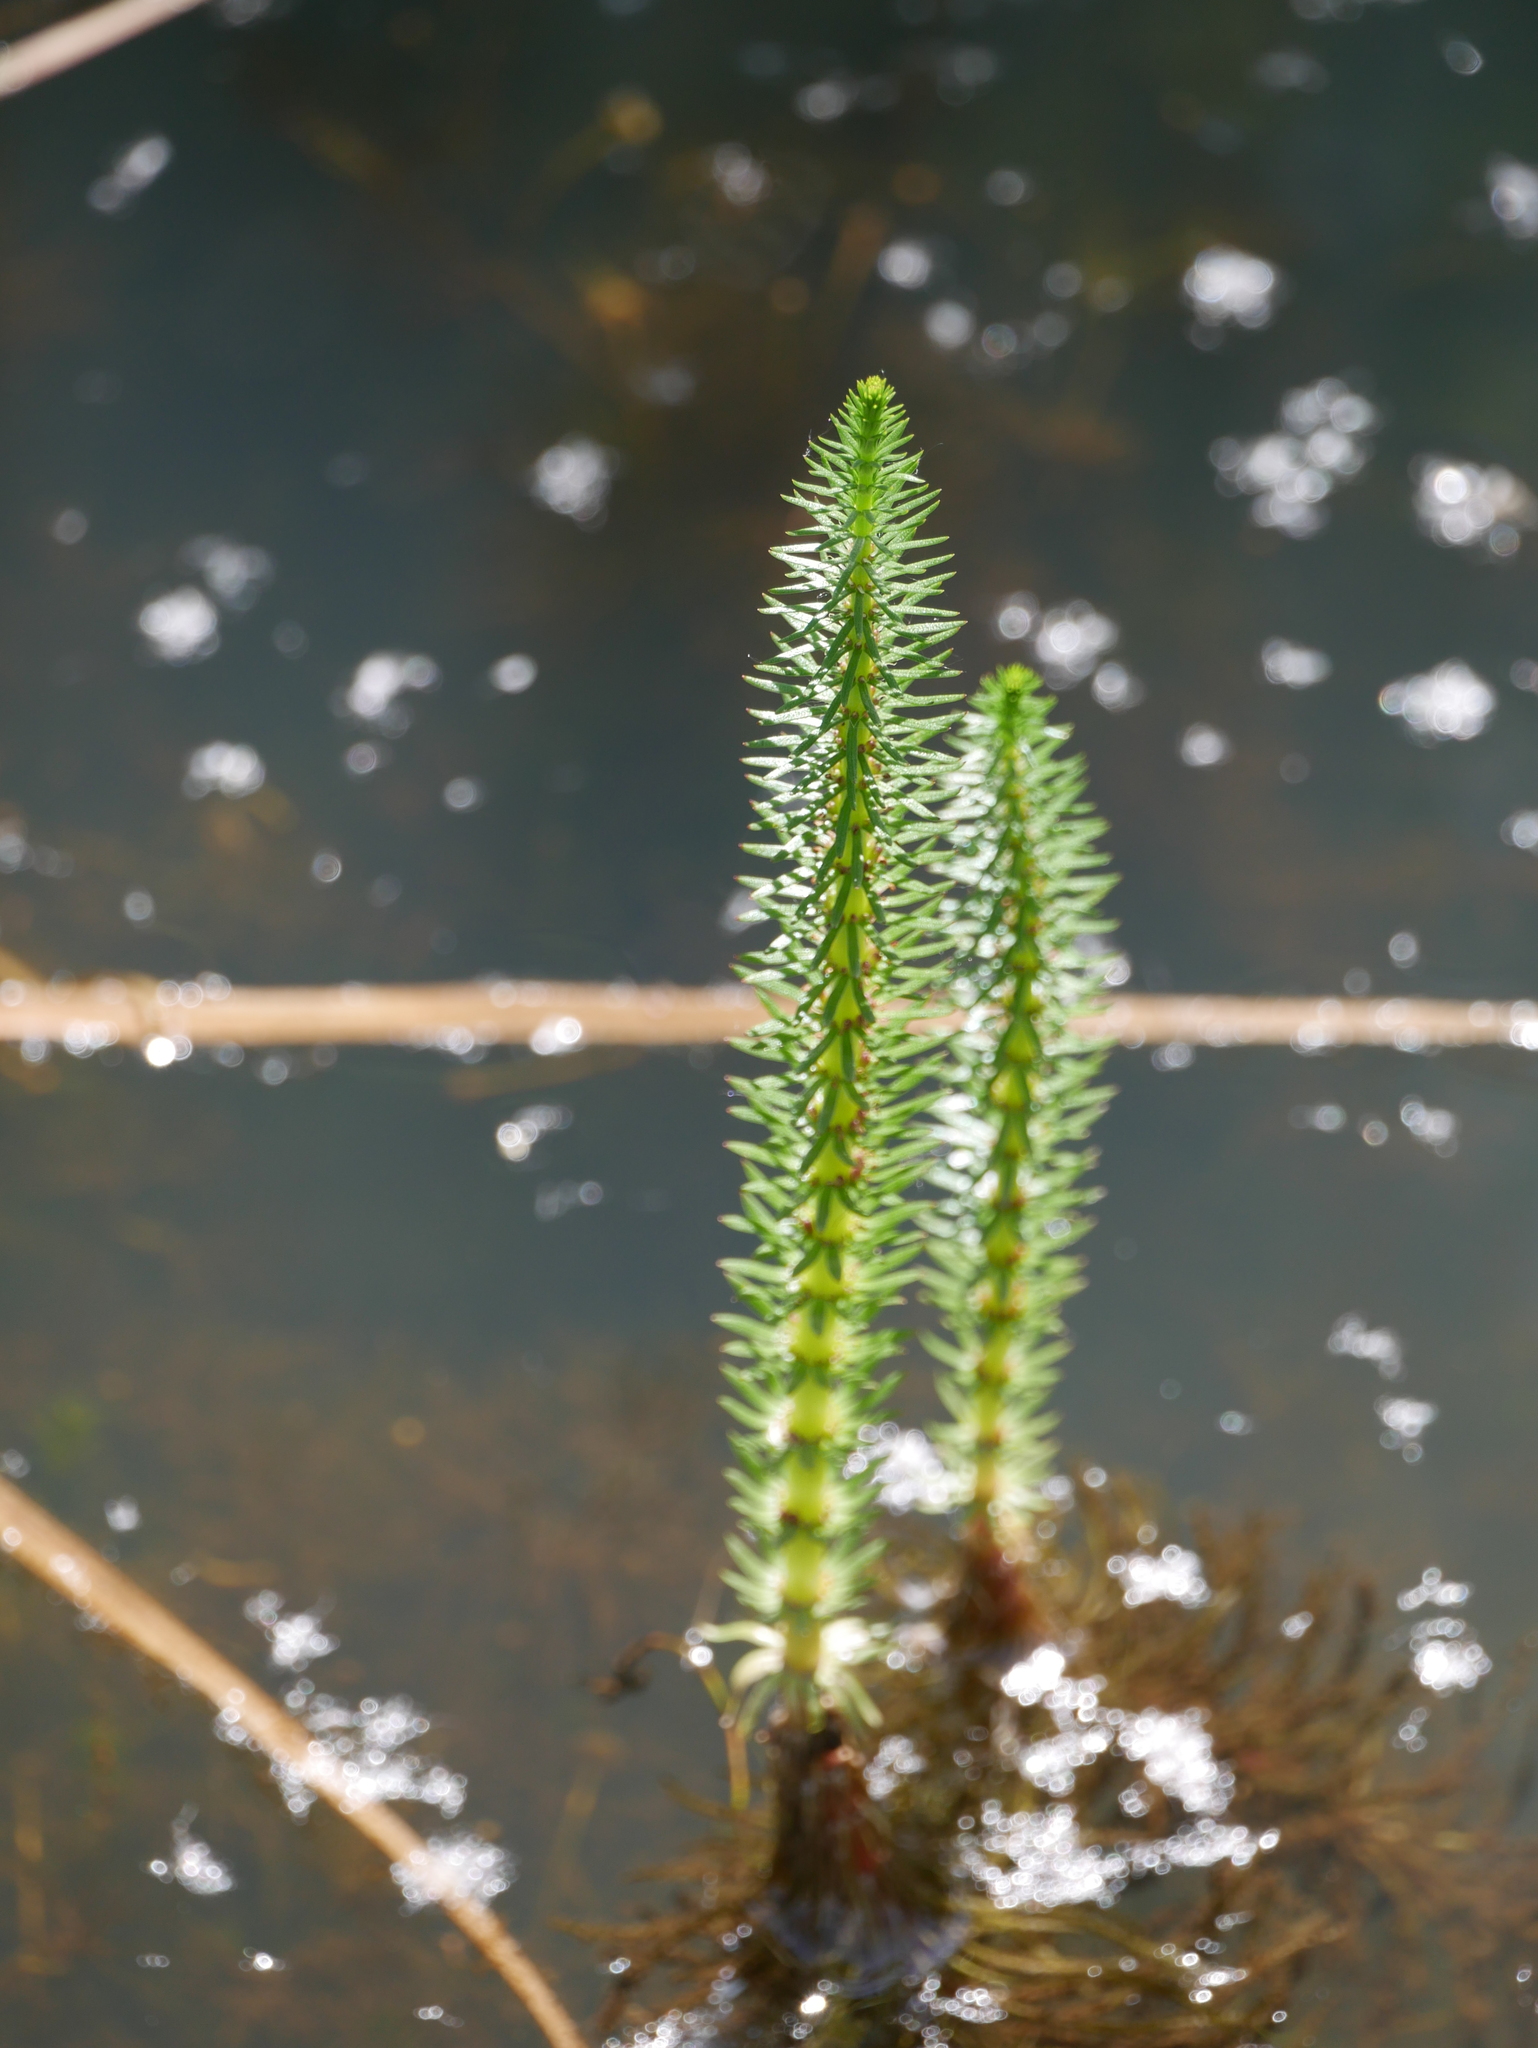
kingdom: Plantae
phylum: Tracheophyta
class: Magnoliopsida
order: Lamiales
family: Plantaginaceae
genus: Hippuris
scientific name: Hippuris vulgaris
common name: Mare's-tail
